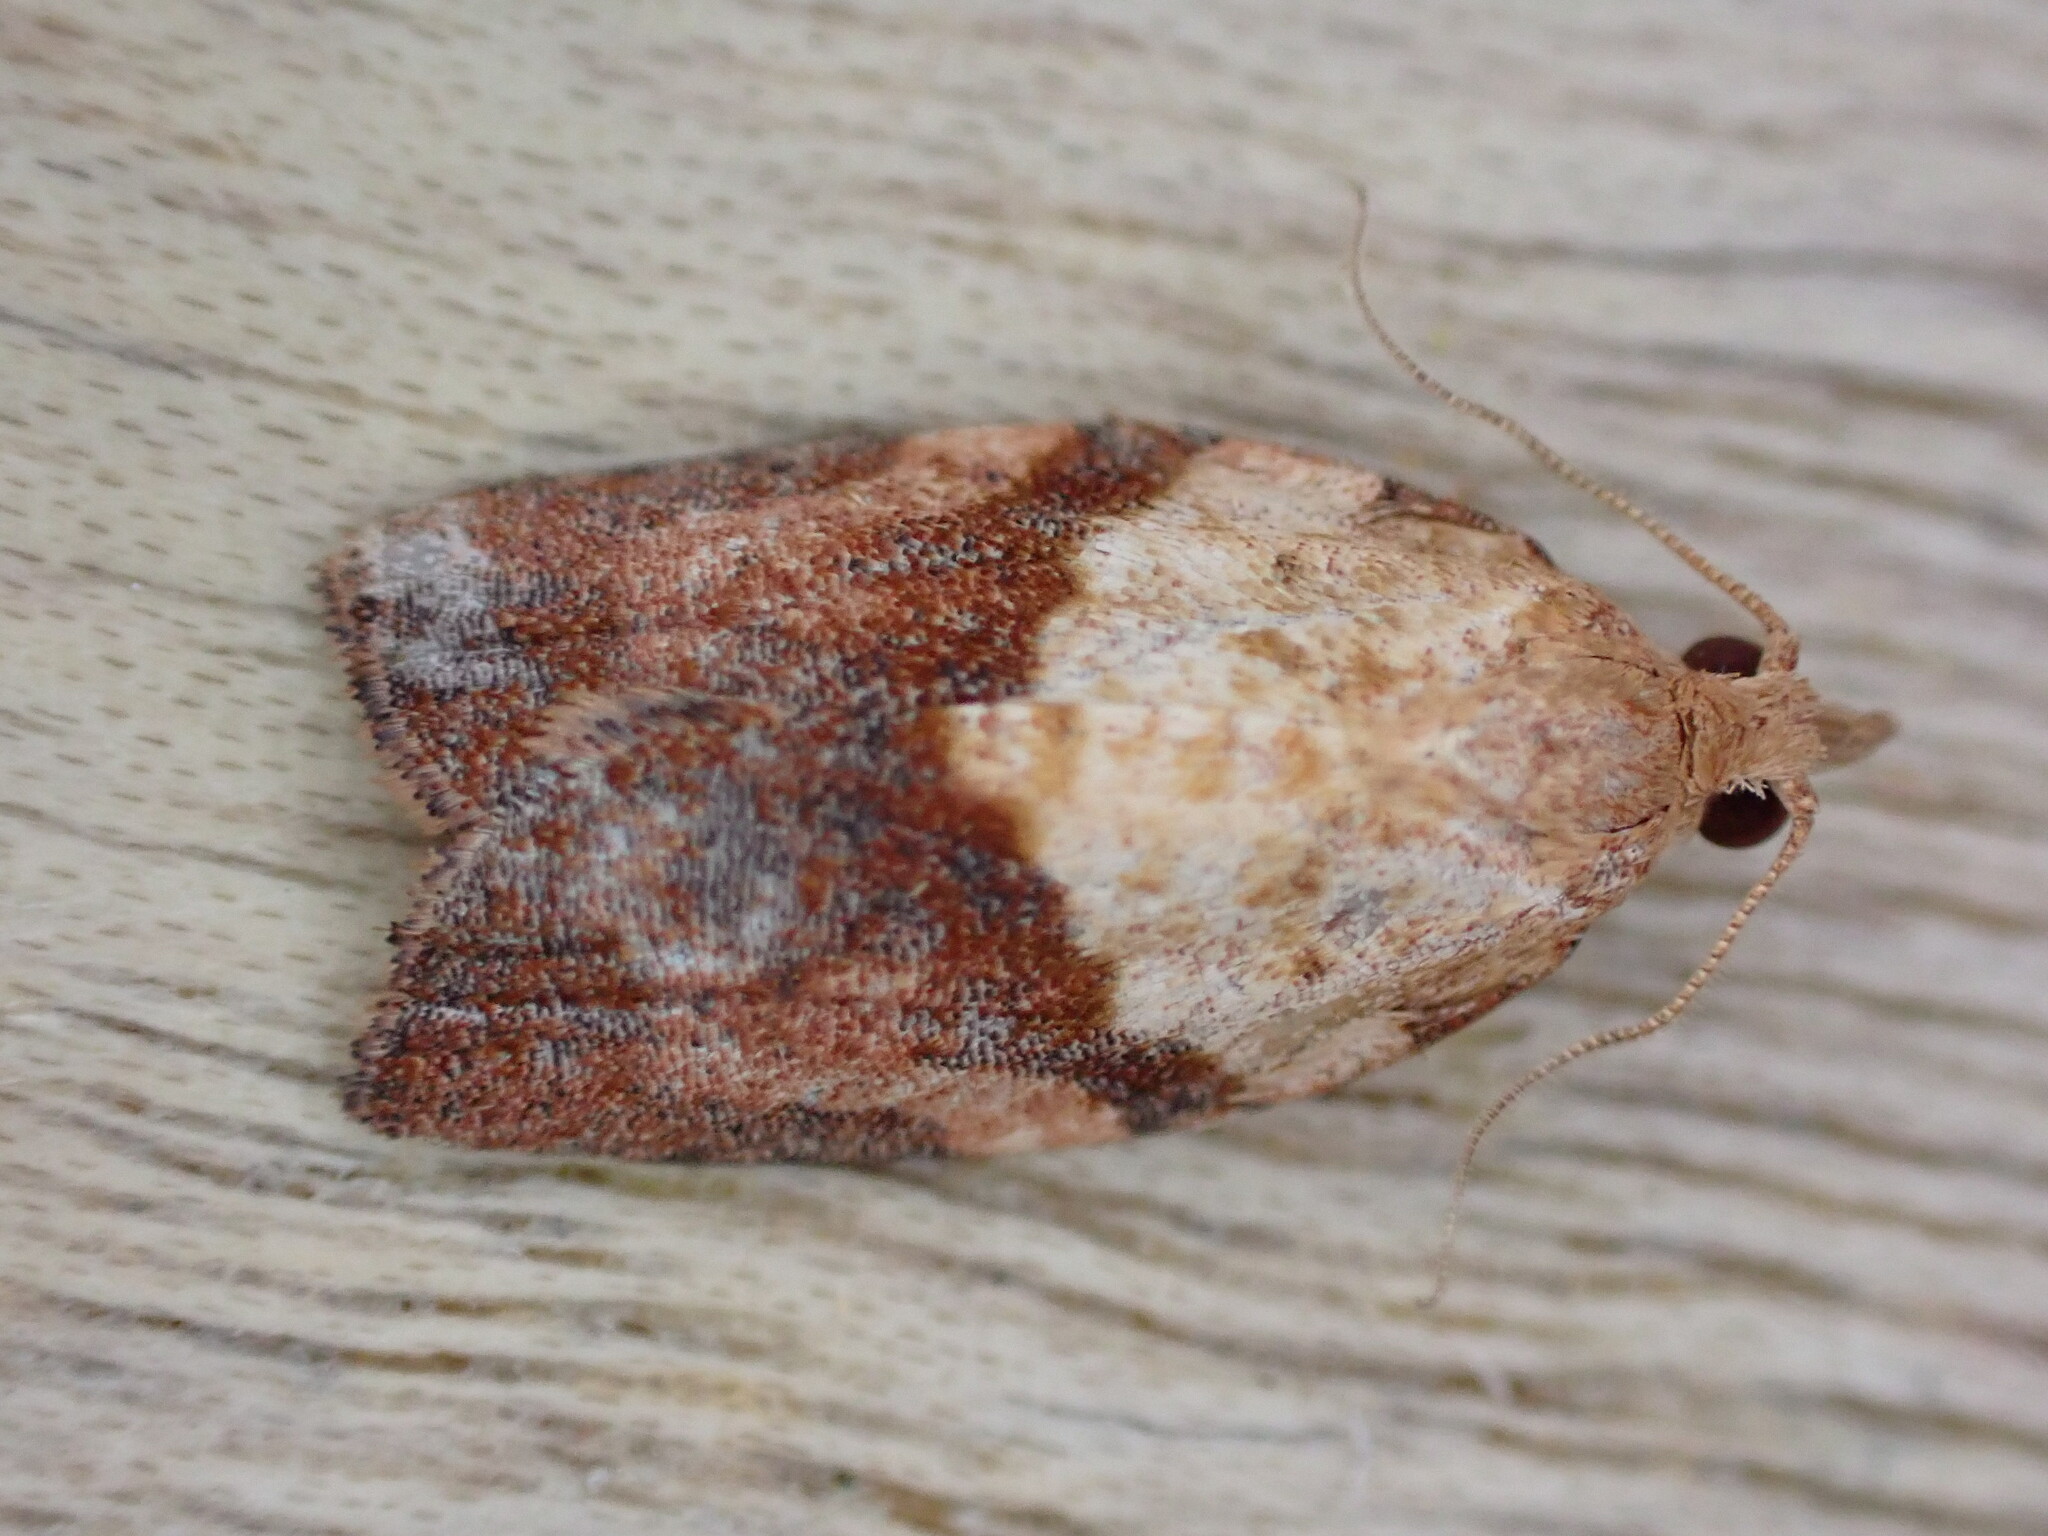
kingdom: Animalia
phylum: Arthropoda
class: Insecta
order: Lepidoptera
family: Tortricidae
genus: Epiphyas
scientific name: Epiphyas postvittana
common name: Light brown apple moth
